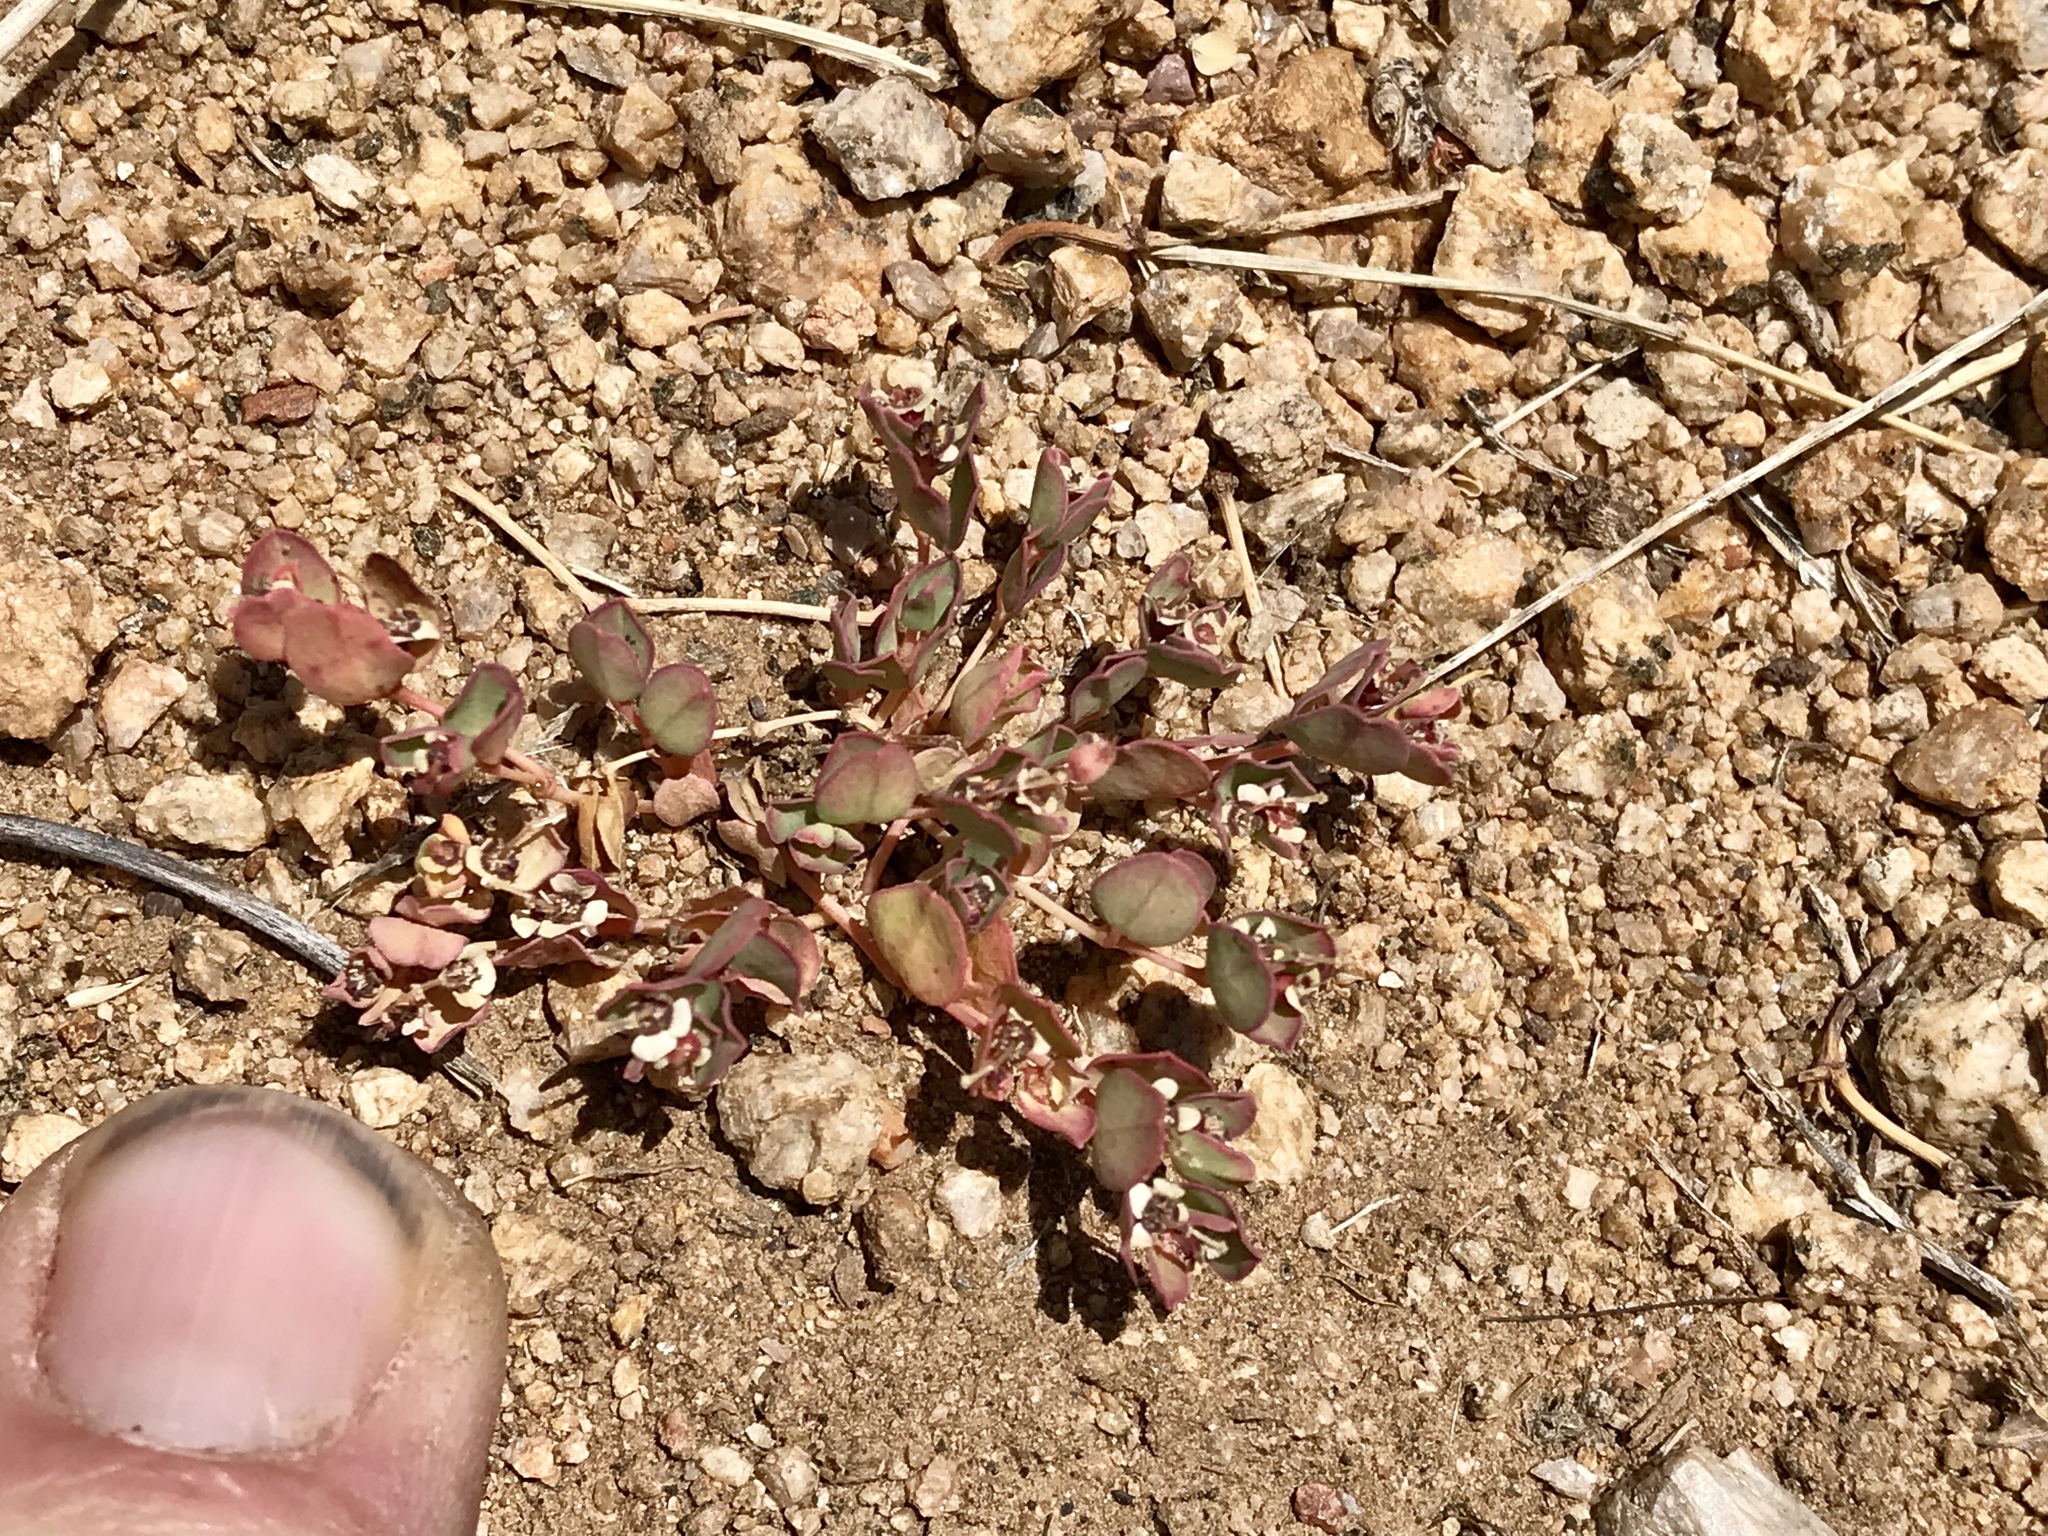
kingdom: Plantae
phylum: Tracheophyta
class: Magnoliopsida
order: Malpighiales
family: Euphorbiaceae
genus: Euphorbia
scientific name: Euphorbia albomarginata
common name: Whitemargin sandmat
